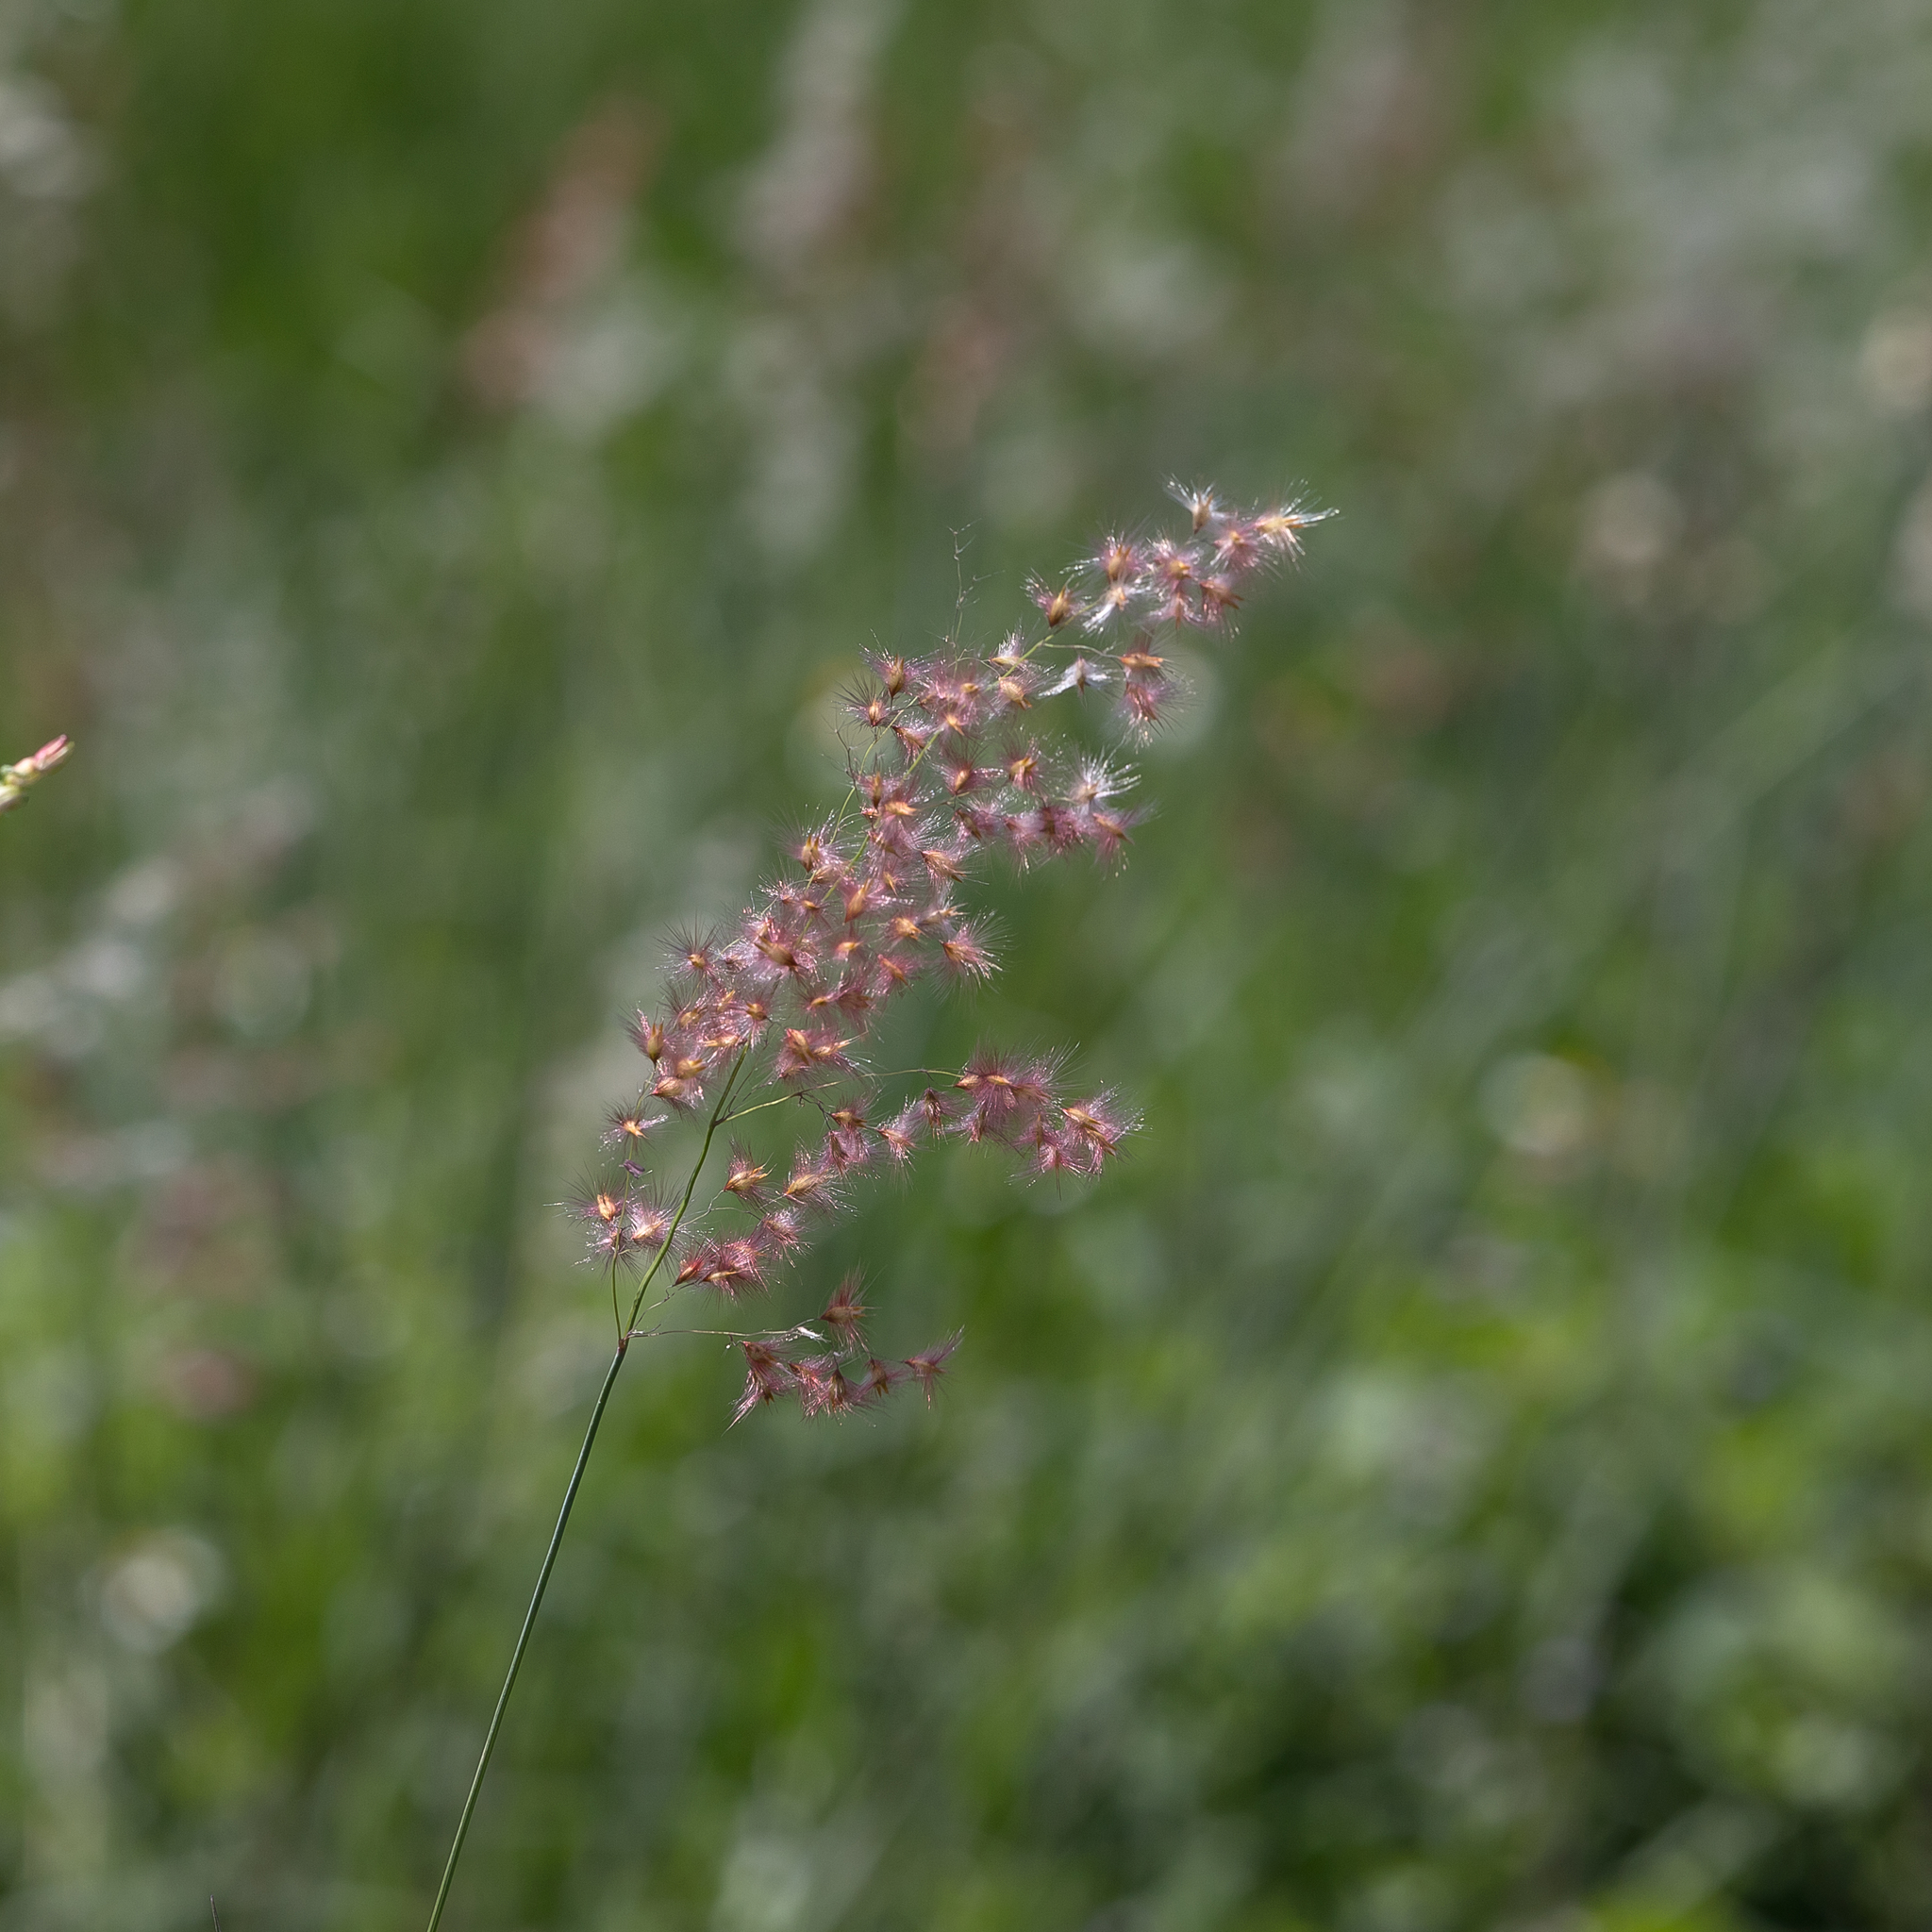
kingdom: Plantae
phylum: Tracheophyta
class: Liliopsida
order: Poales
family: Poaceae
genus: Melinis
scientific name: Melinis repens
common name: Rose natal grass
